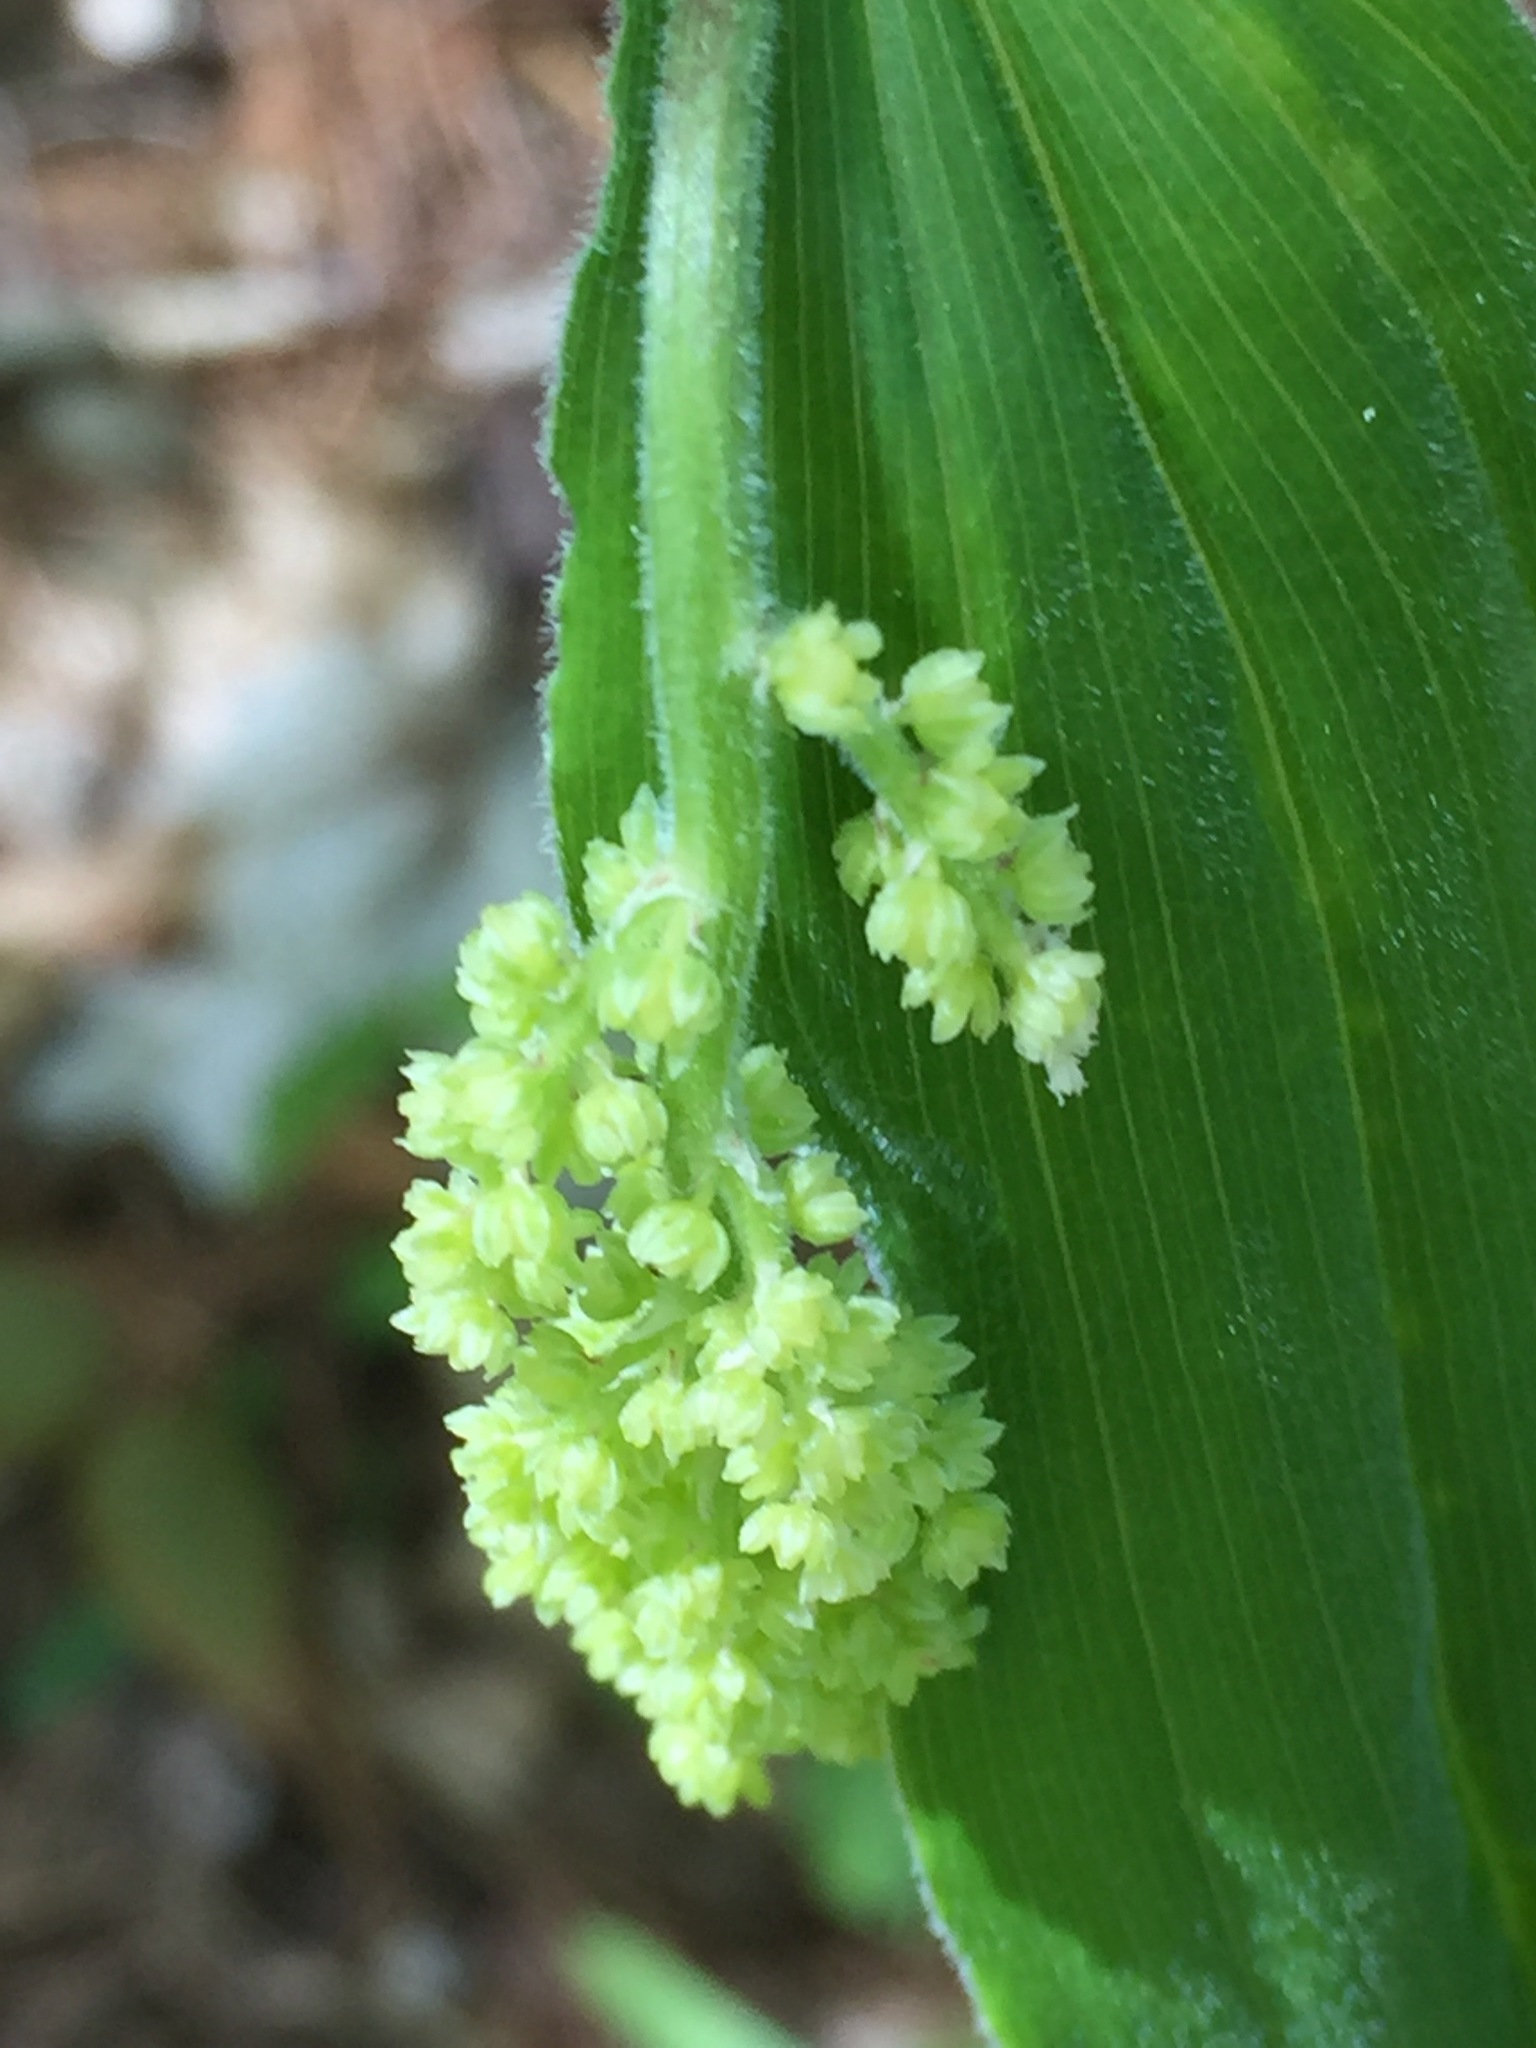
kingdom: Plantae
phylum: Tracheophyta
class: Liliopsida
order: Asparagales
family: Asparagaceae
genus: Maianthemum
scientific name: Maianthemum racemosum
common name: False spikenard
